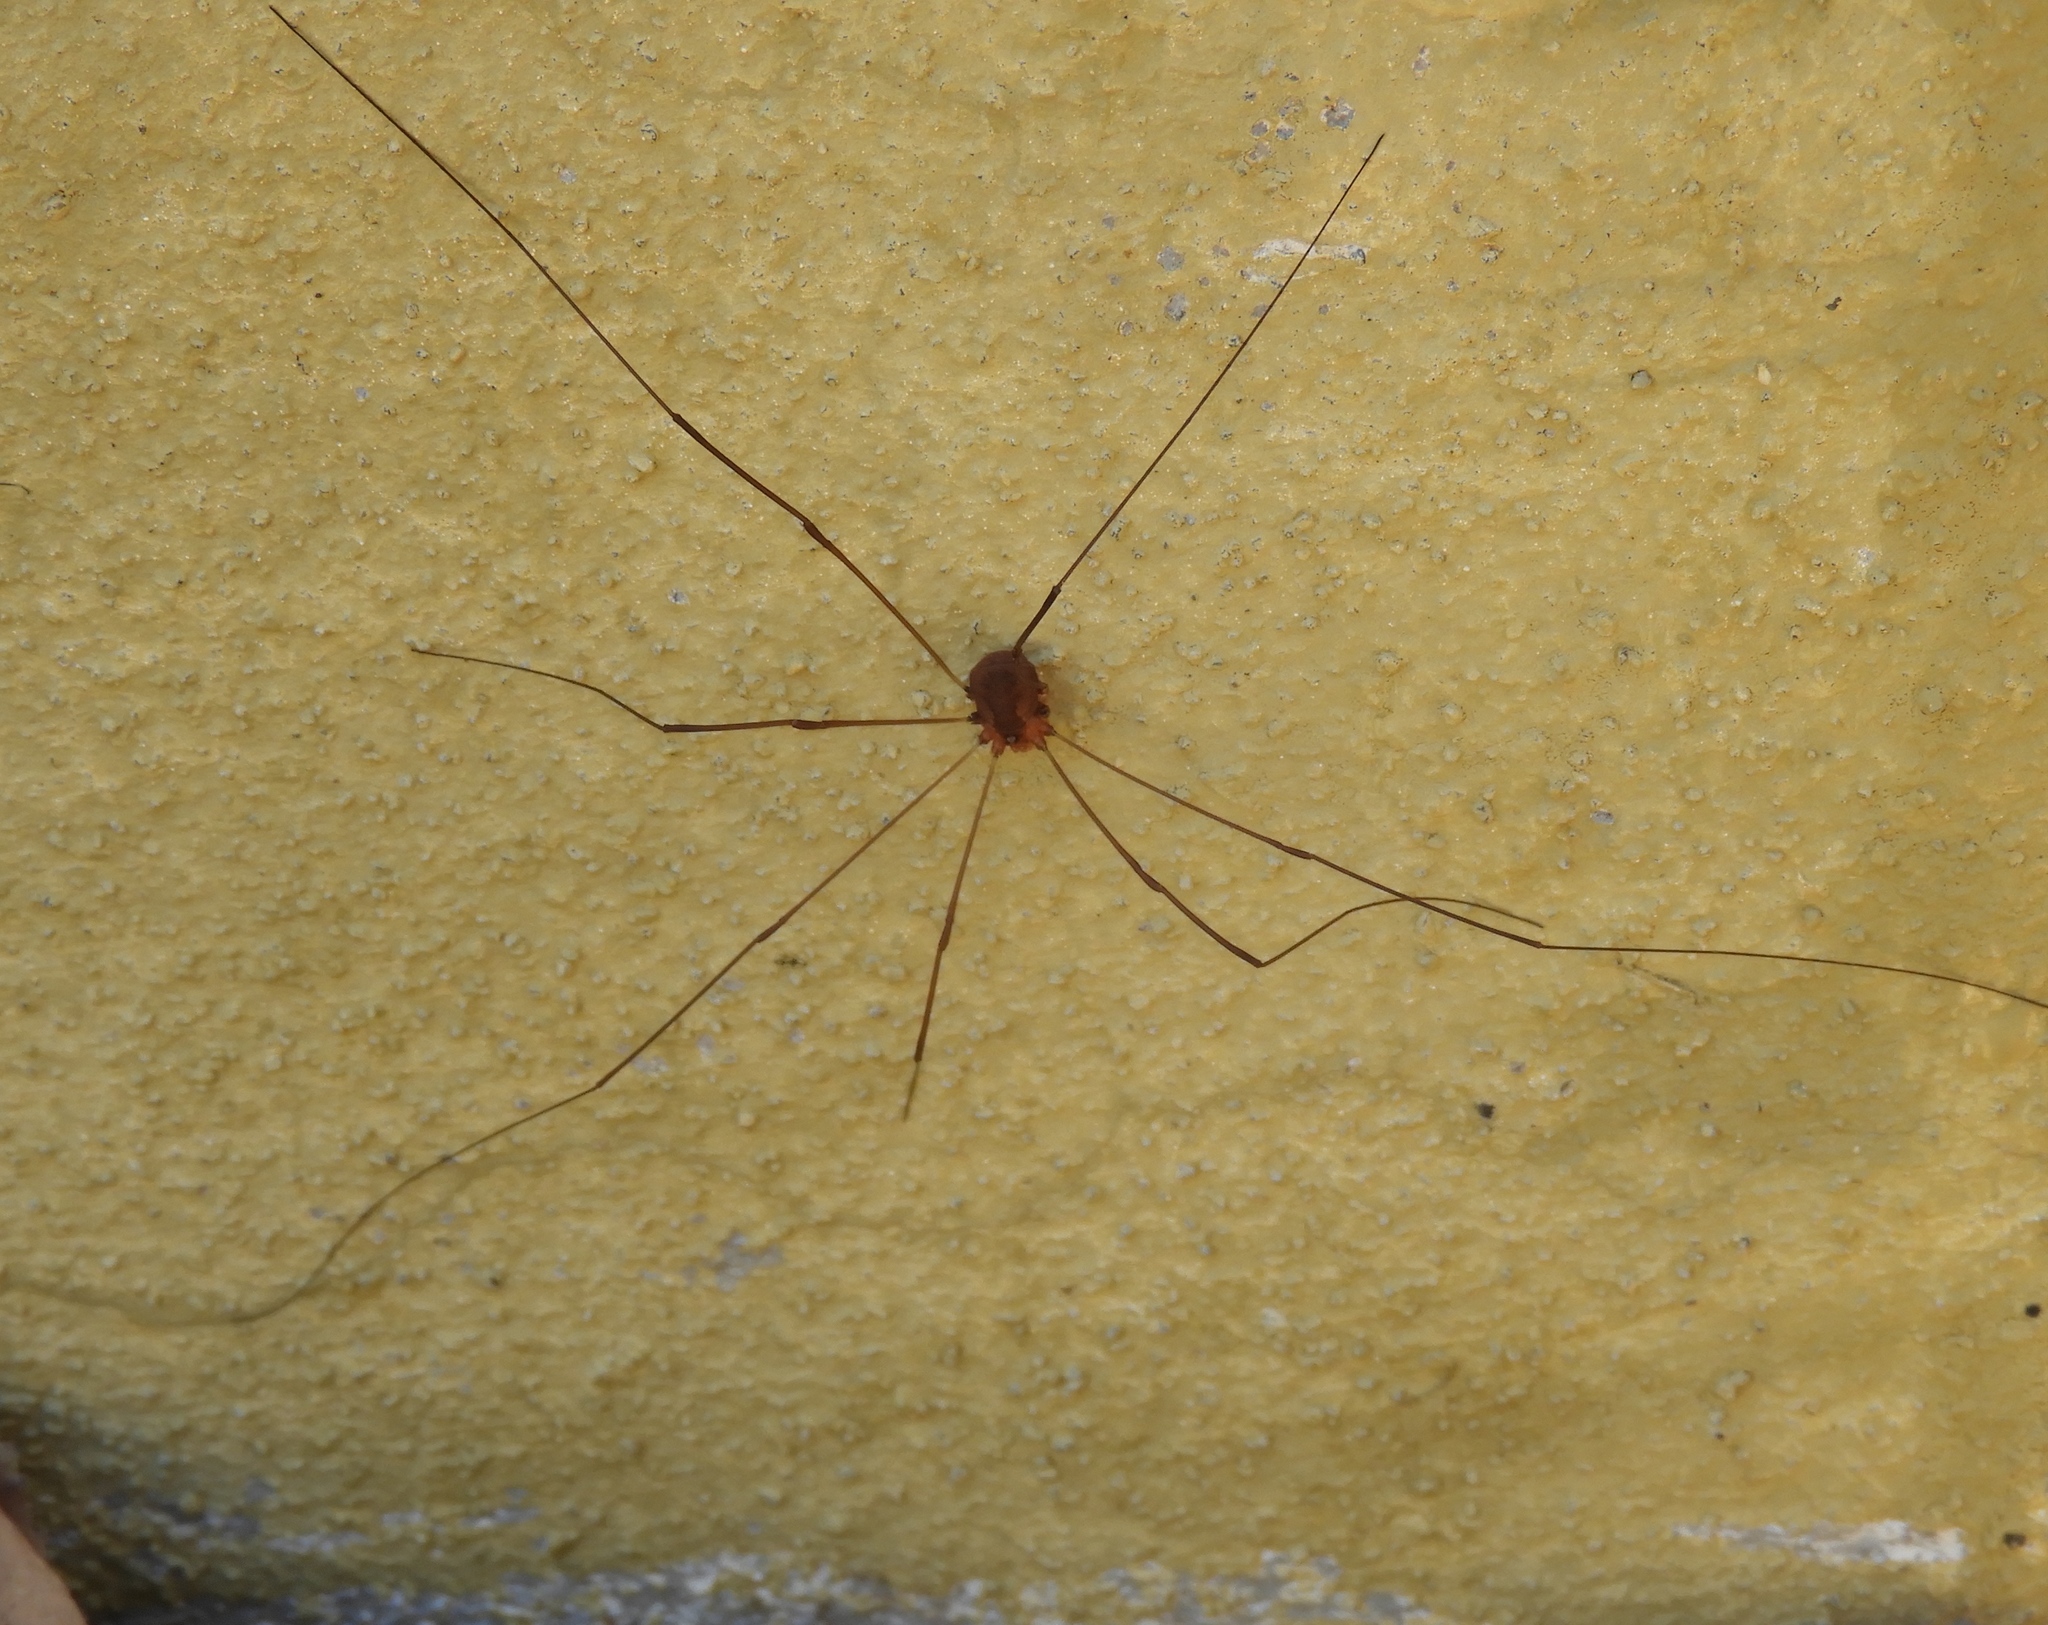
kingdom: Animalia
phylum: Arthropoda
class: Arachnida
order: Opiliones
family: Sclerosomatidae
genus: Leiobunum
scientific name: Leiobunum
